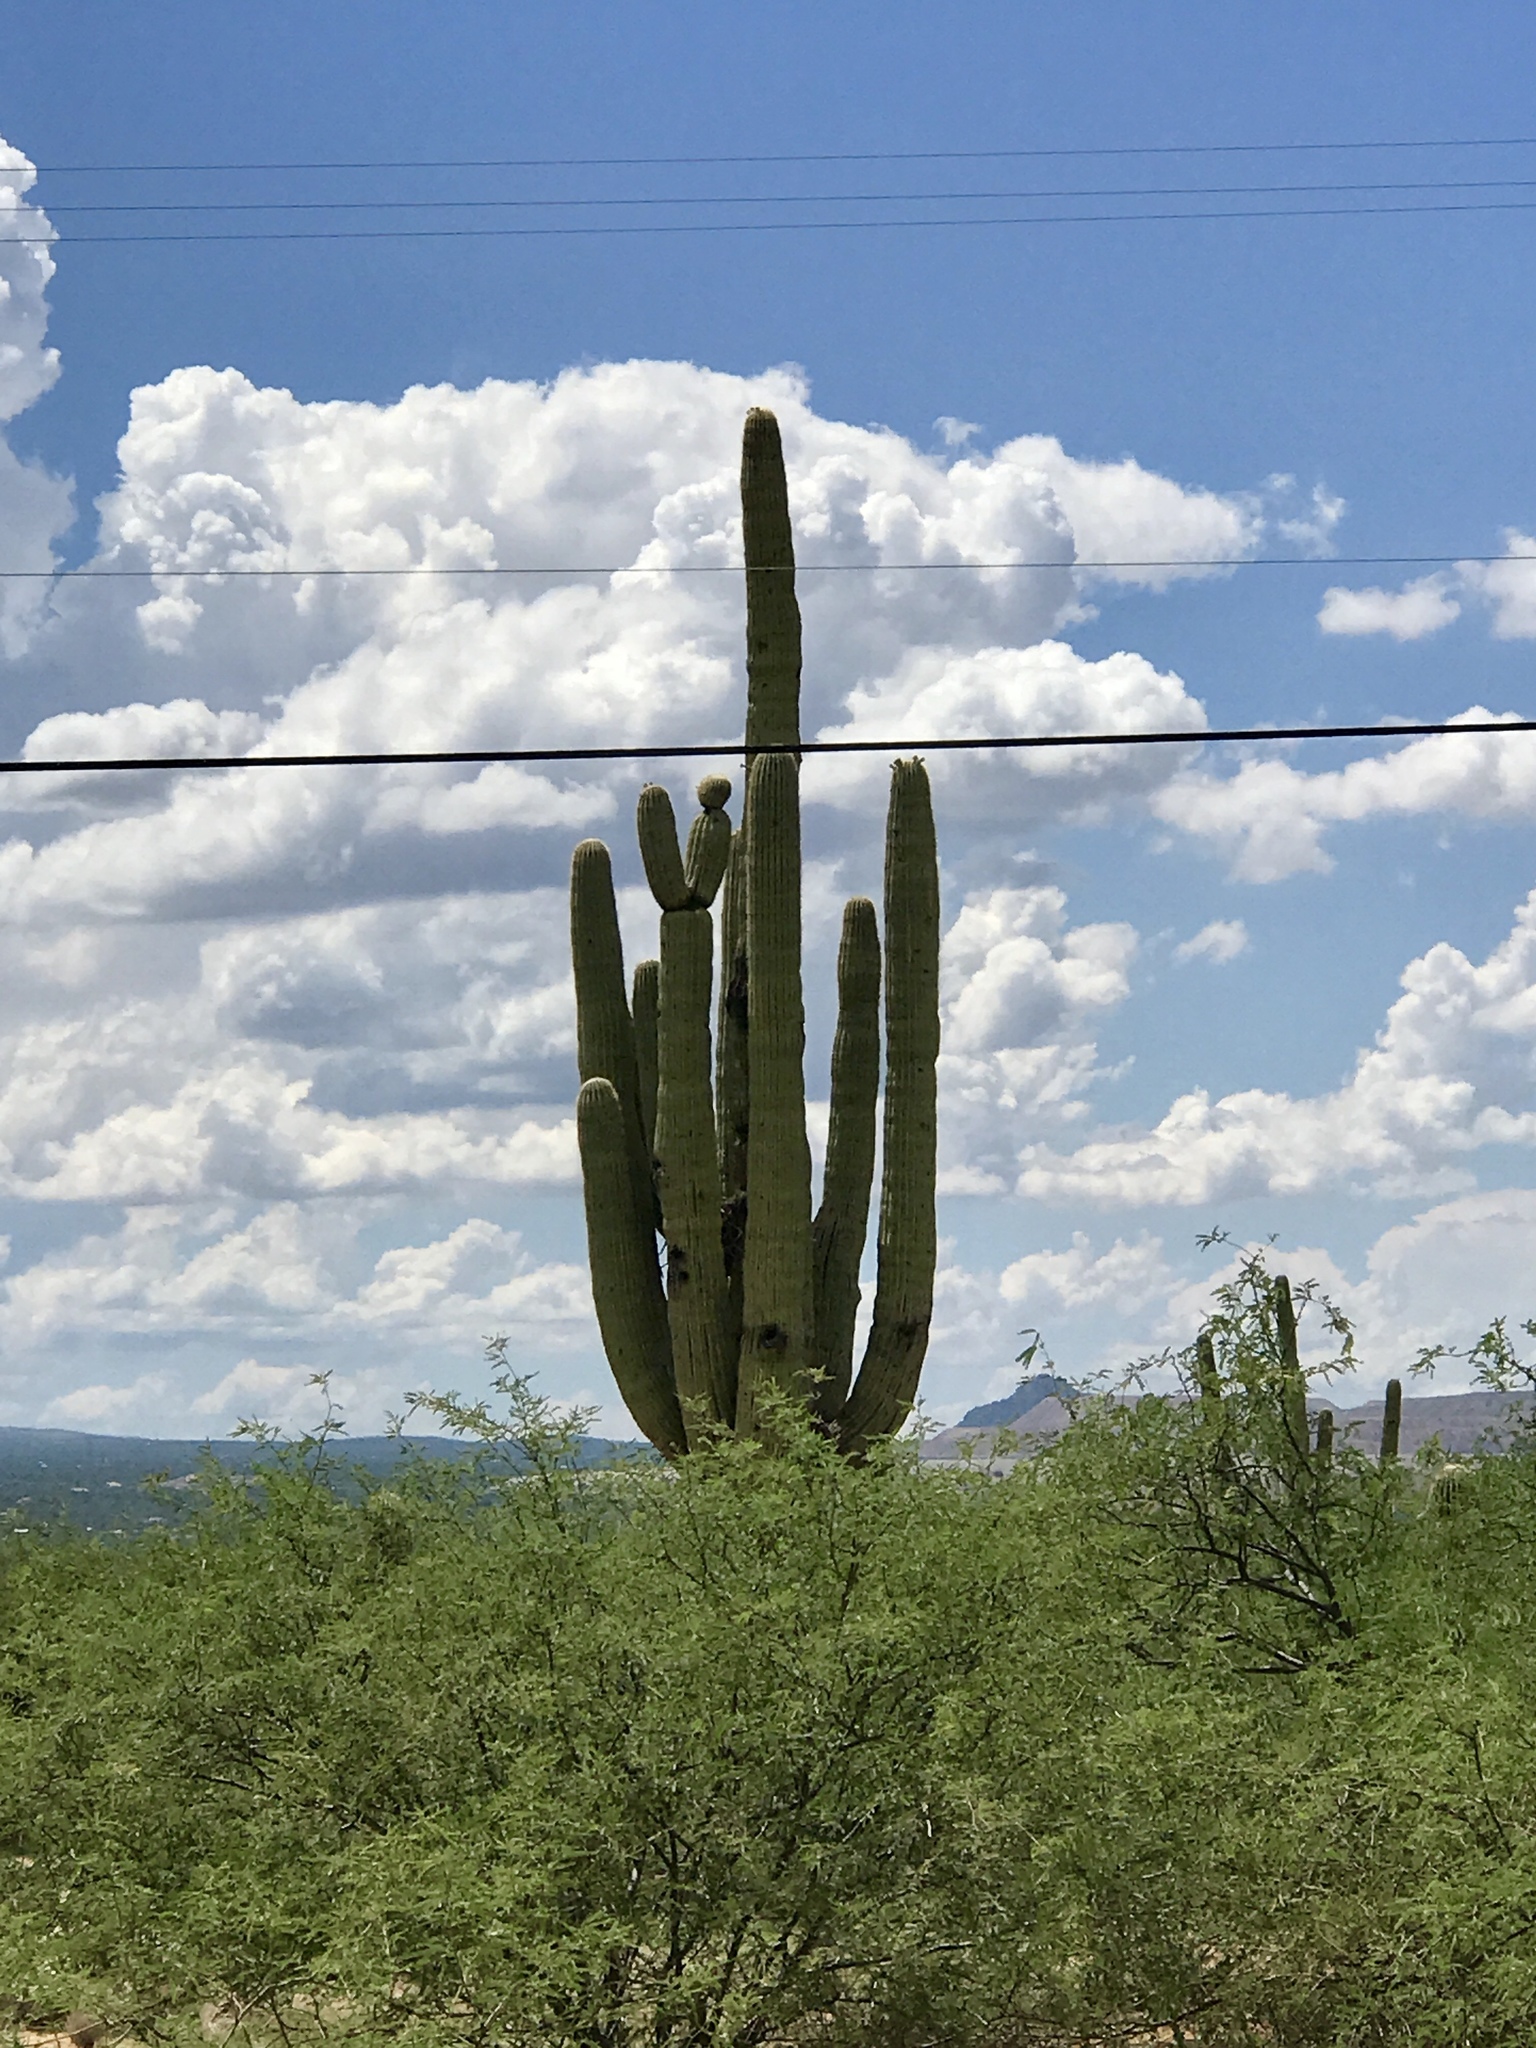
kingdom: Plantae
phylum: Tracheophyta
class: Magnoliopsida
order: Caryophyllales
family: Cactaceae
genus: Carnegiea
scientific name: Carnegiea gigantea
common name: Saguaro
